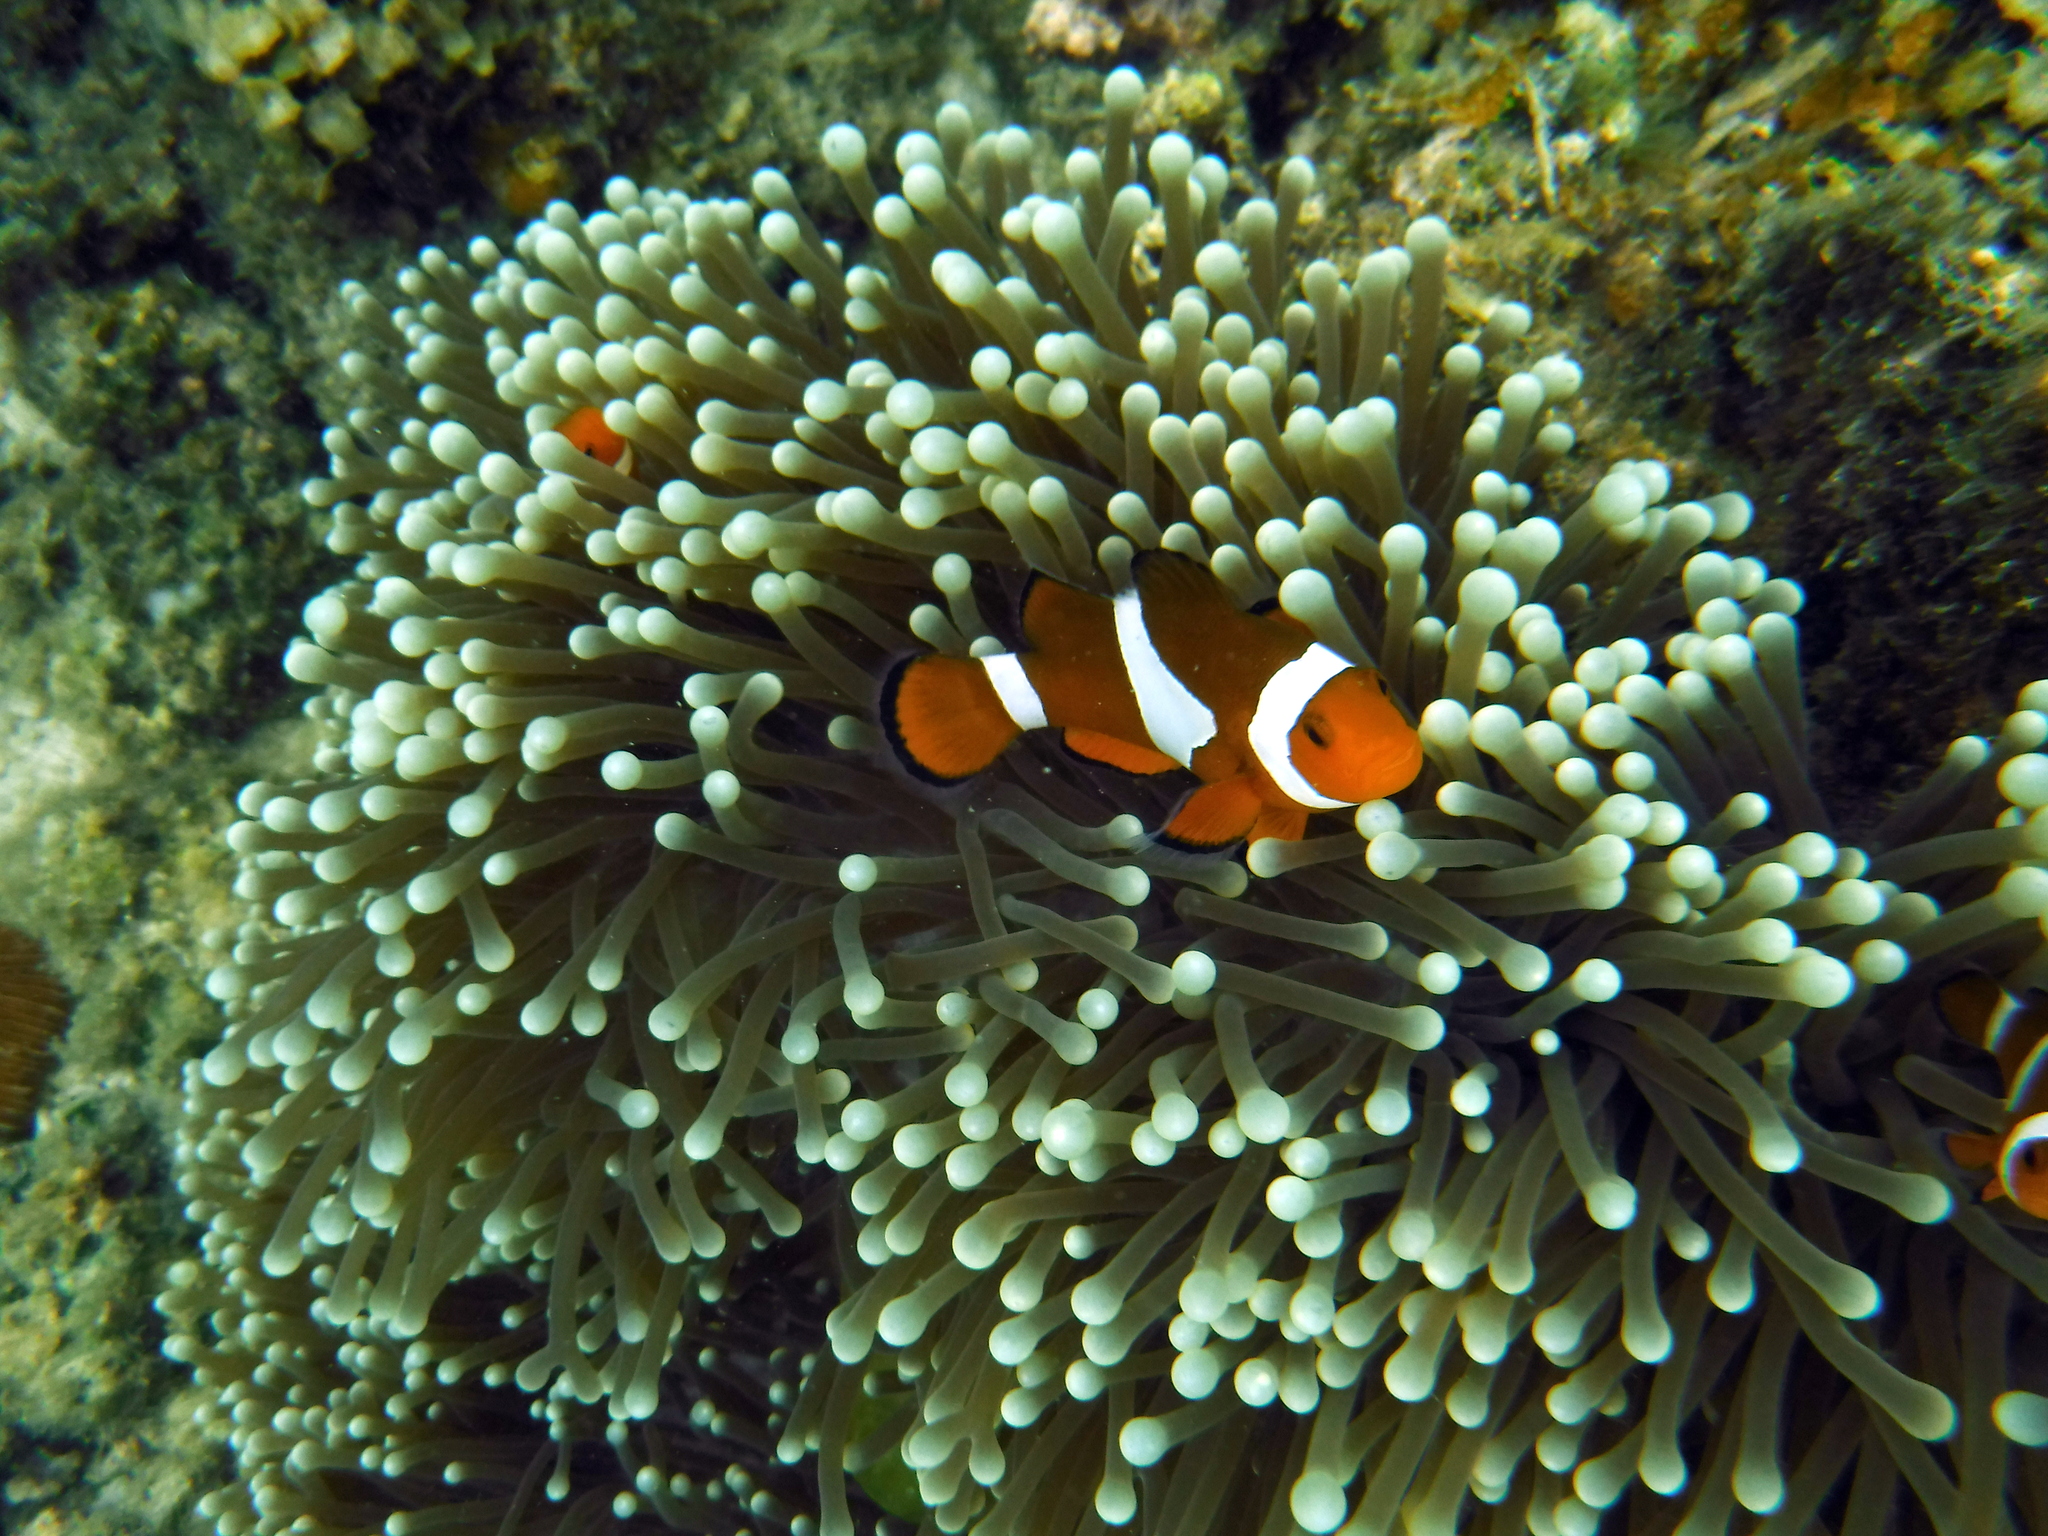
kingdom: Animalia
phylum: Chordata
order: Perciformes
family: Pomacentridae
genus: Amphiprion
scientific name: Amphiprion ocellaris
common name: Clown anemonefish
